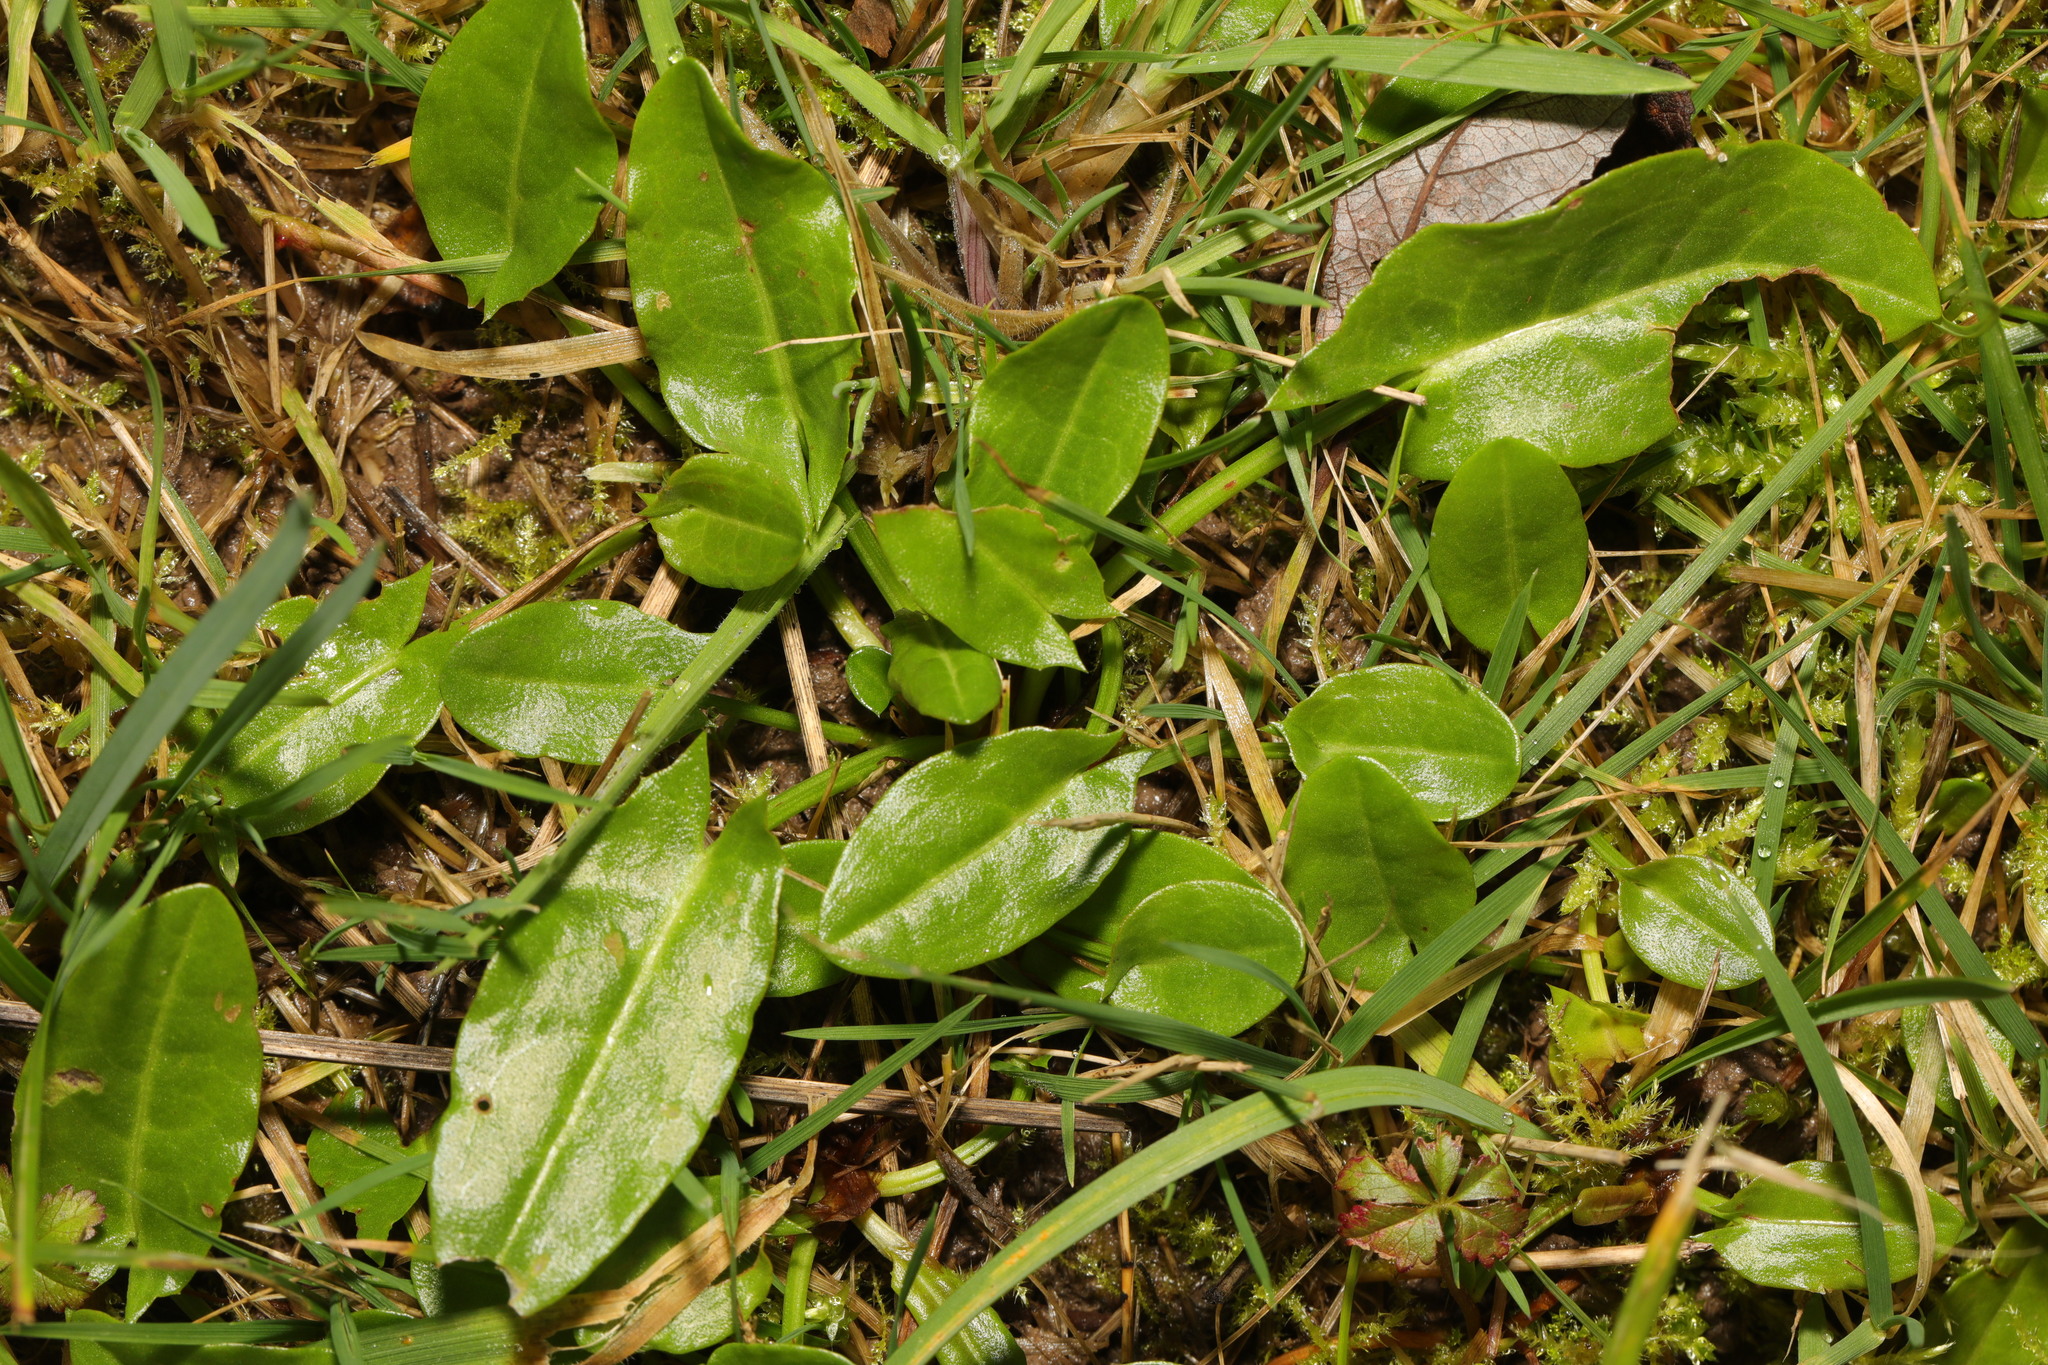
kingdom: Plantae
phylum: Tracheophyta
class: Magnoliopsida
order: Caryophyllales
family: Polygonaceae
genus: Rumex
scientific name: Rumex acetosa
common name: Garden sorrel
